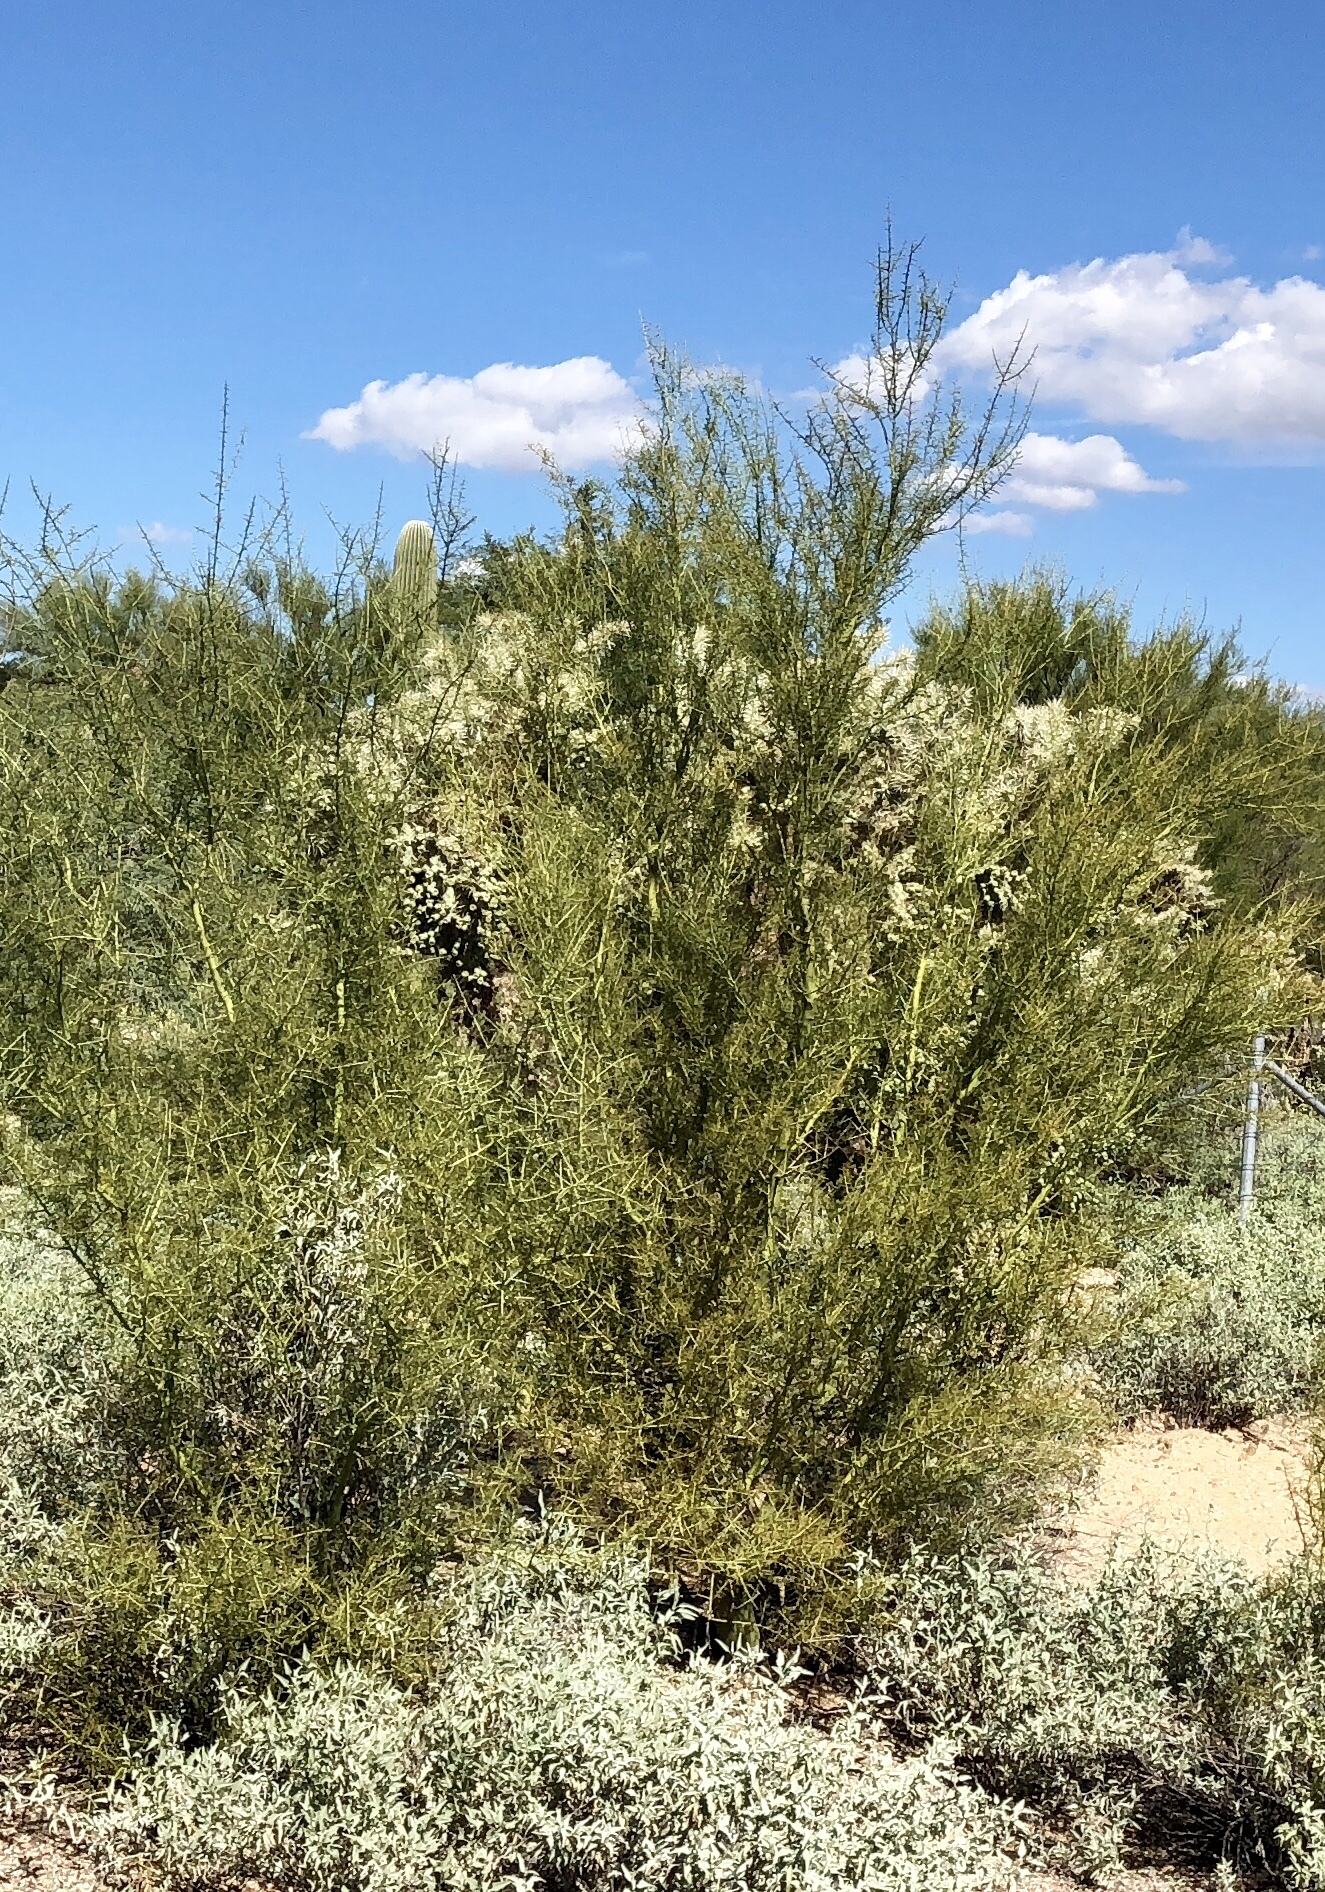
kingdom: Plantae
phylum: Tracheophyta
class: Magnoliopsida
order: Fabales
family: Fabaceae
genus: Parkinsonia
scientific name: Parkinsonia microphylla
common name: Yellow paloverde
